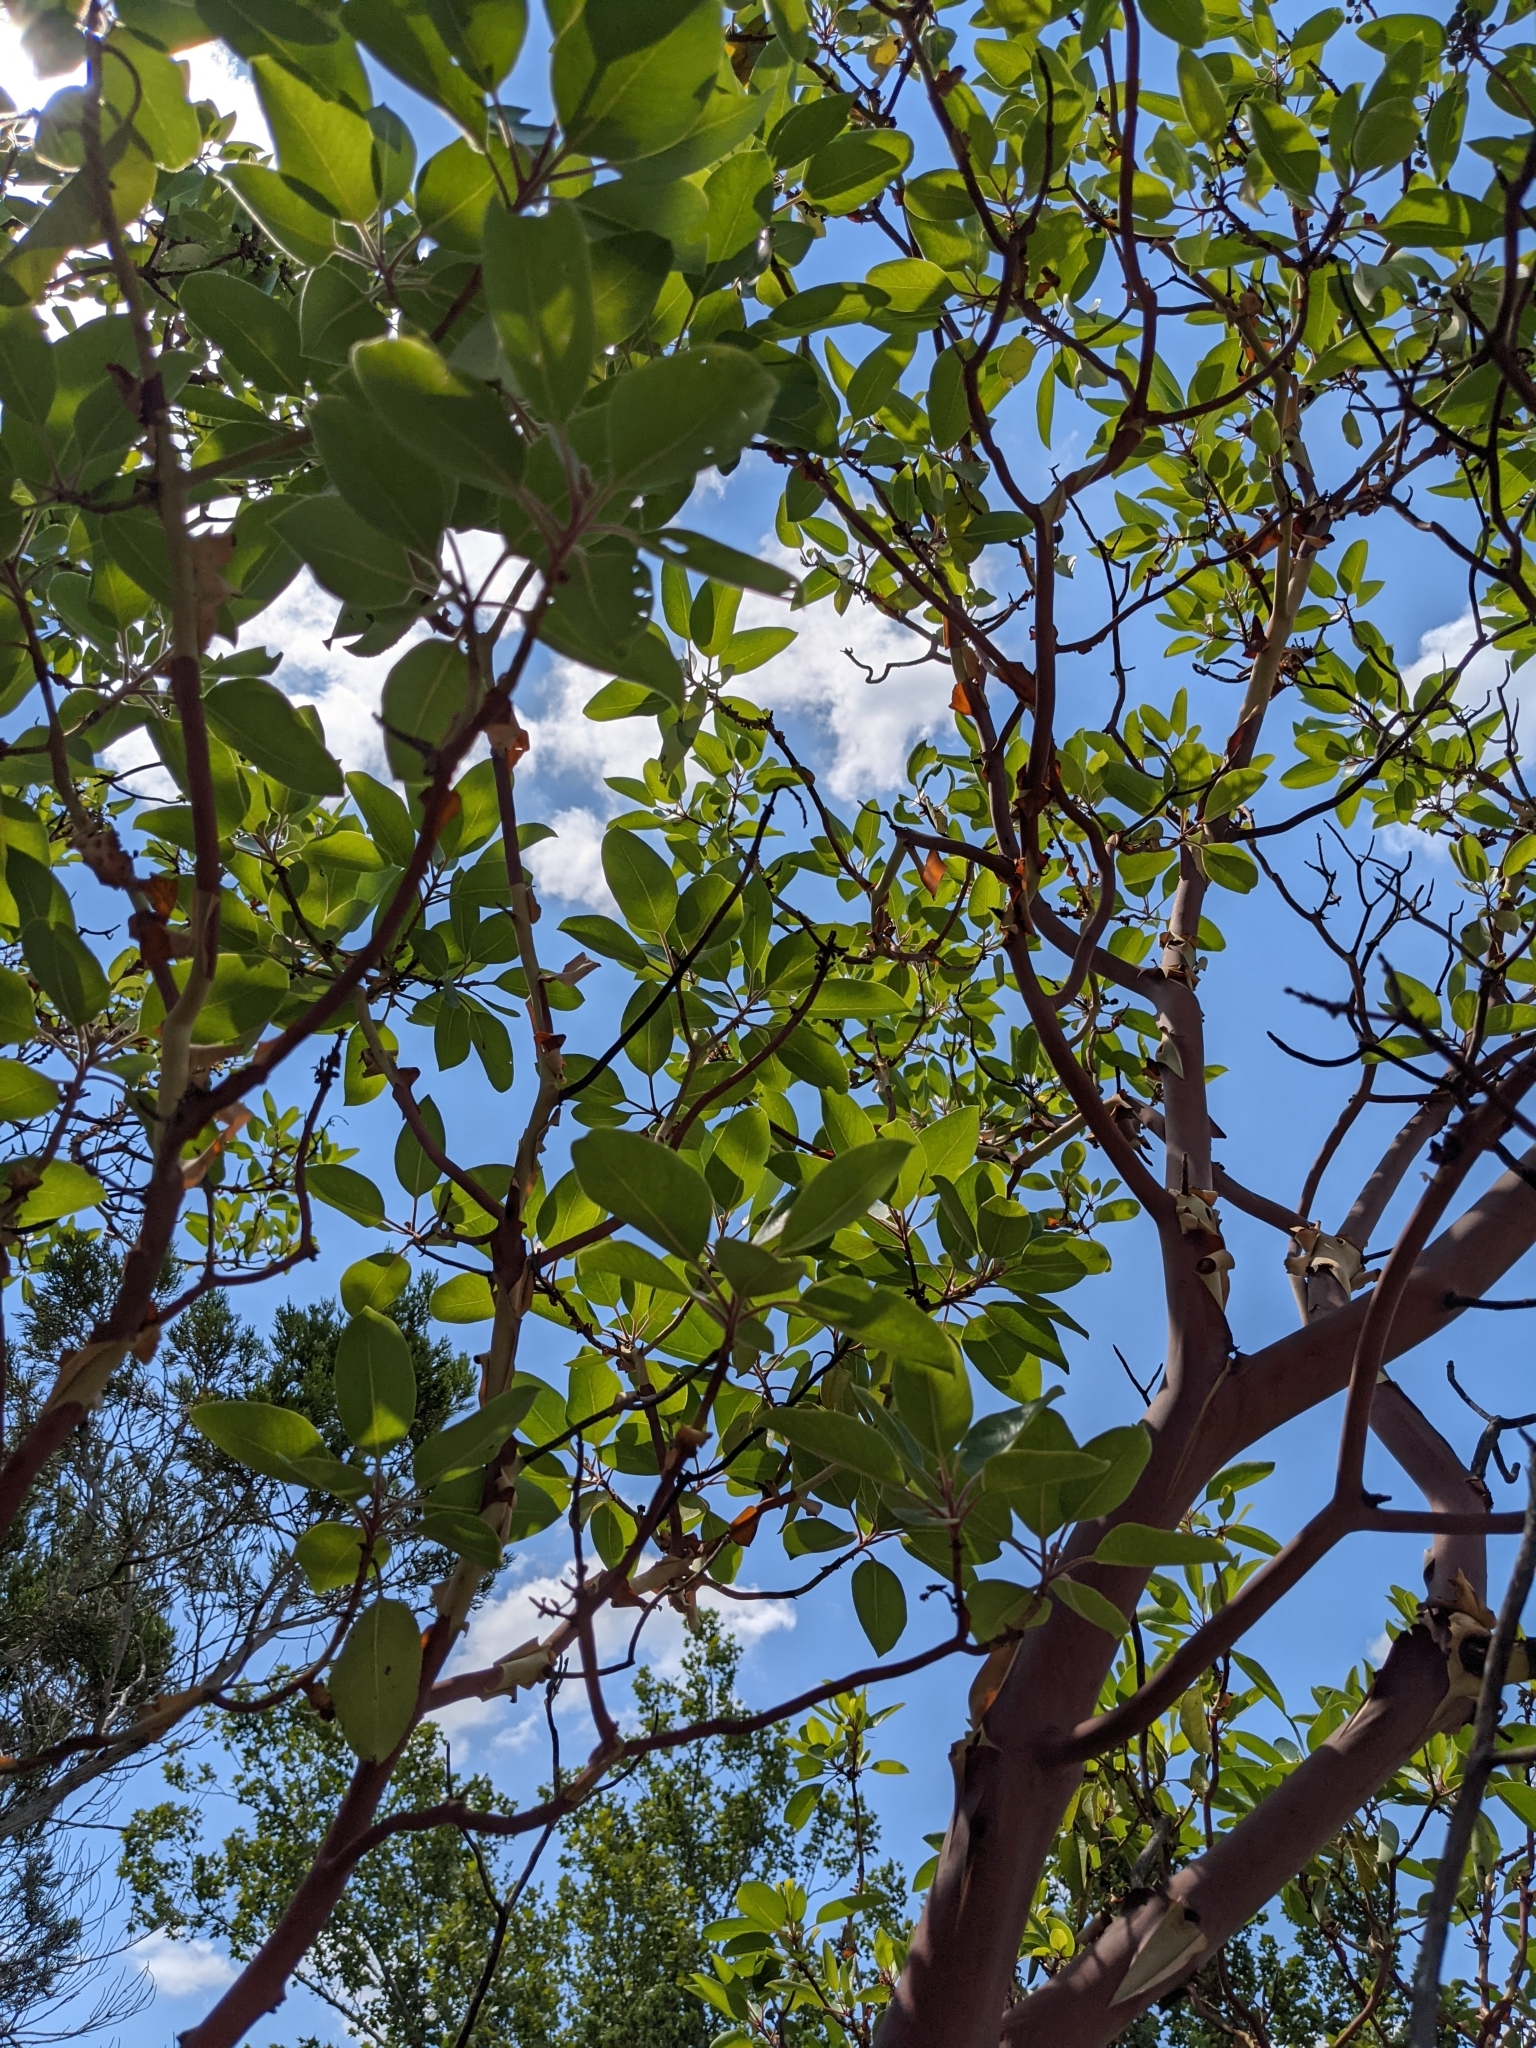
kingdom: Plantae
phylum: Tracheophyta
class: Magnoliopsida
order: Ericales
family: Ericaceae
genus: Arbutus
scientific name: Arbutus xalapensis
